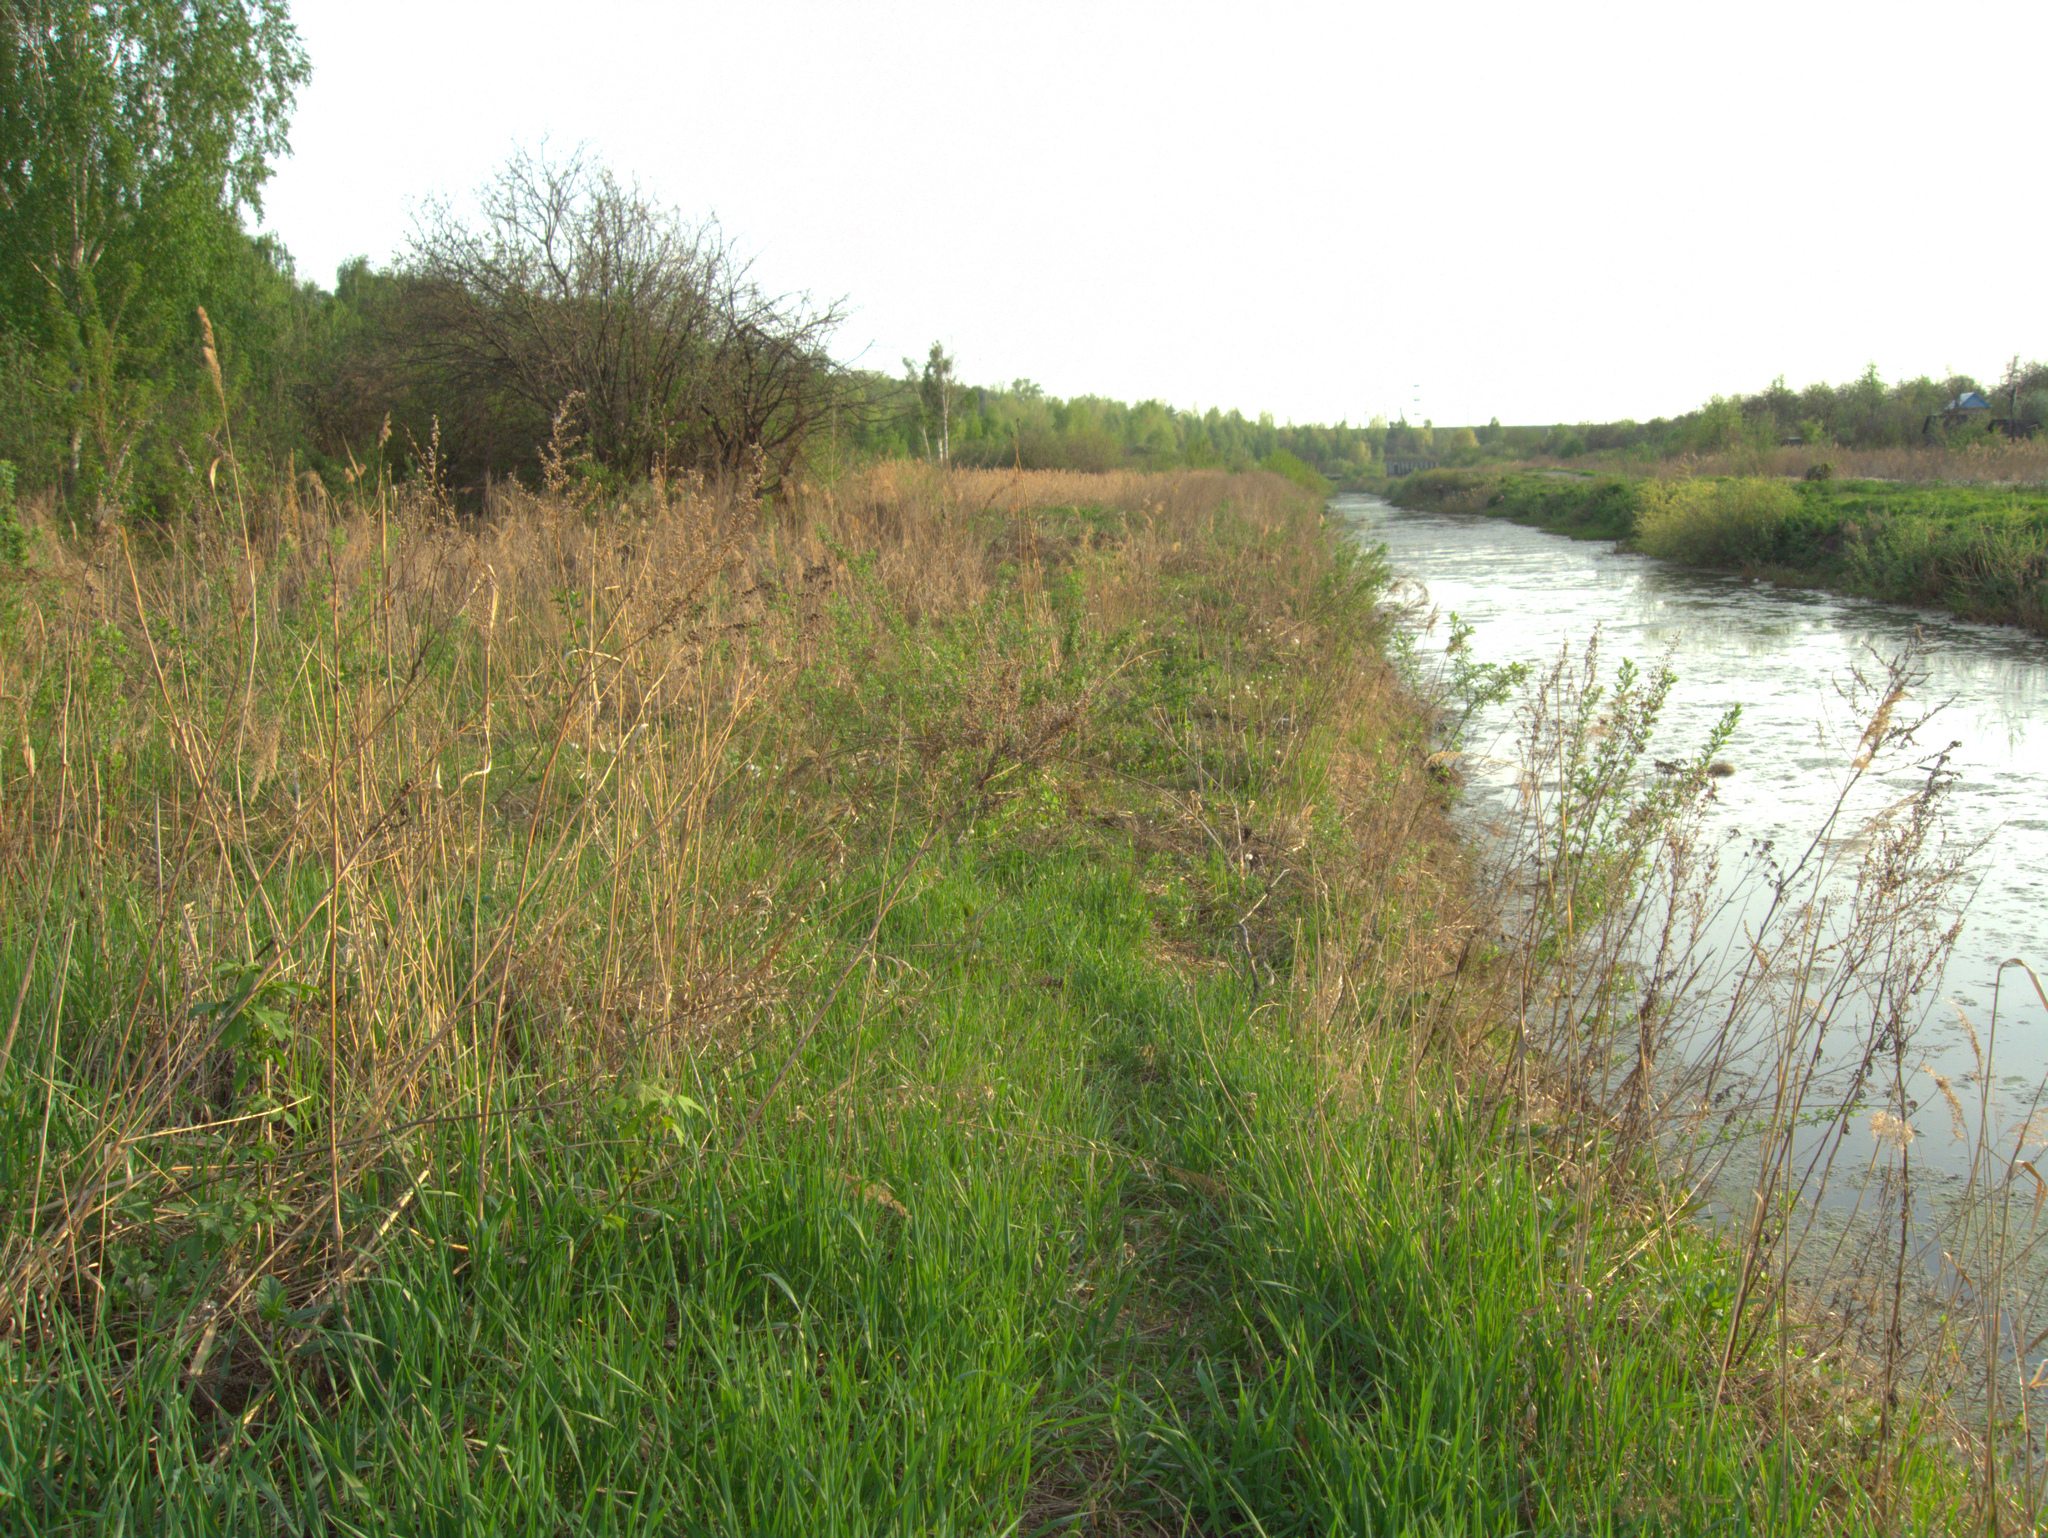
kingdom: Plantae
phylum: Tracheophyta
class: Liliopsida
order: Poales
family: Poaceae
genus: Phragmites
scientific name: Phragmites australis
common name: Common reed
